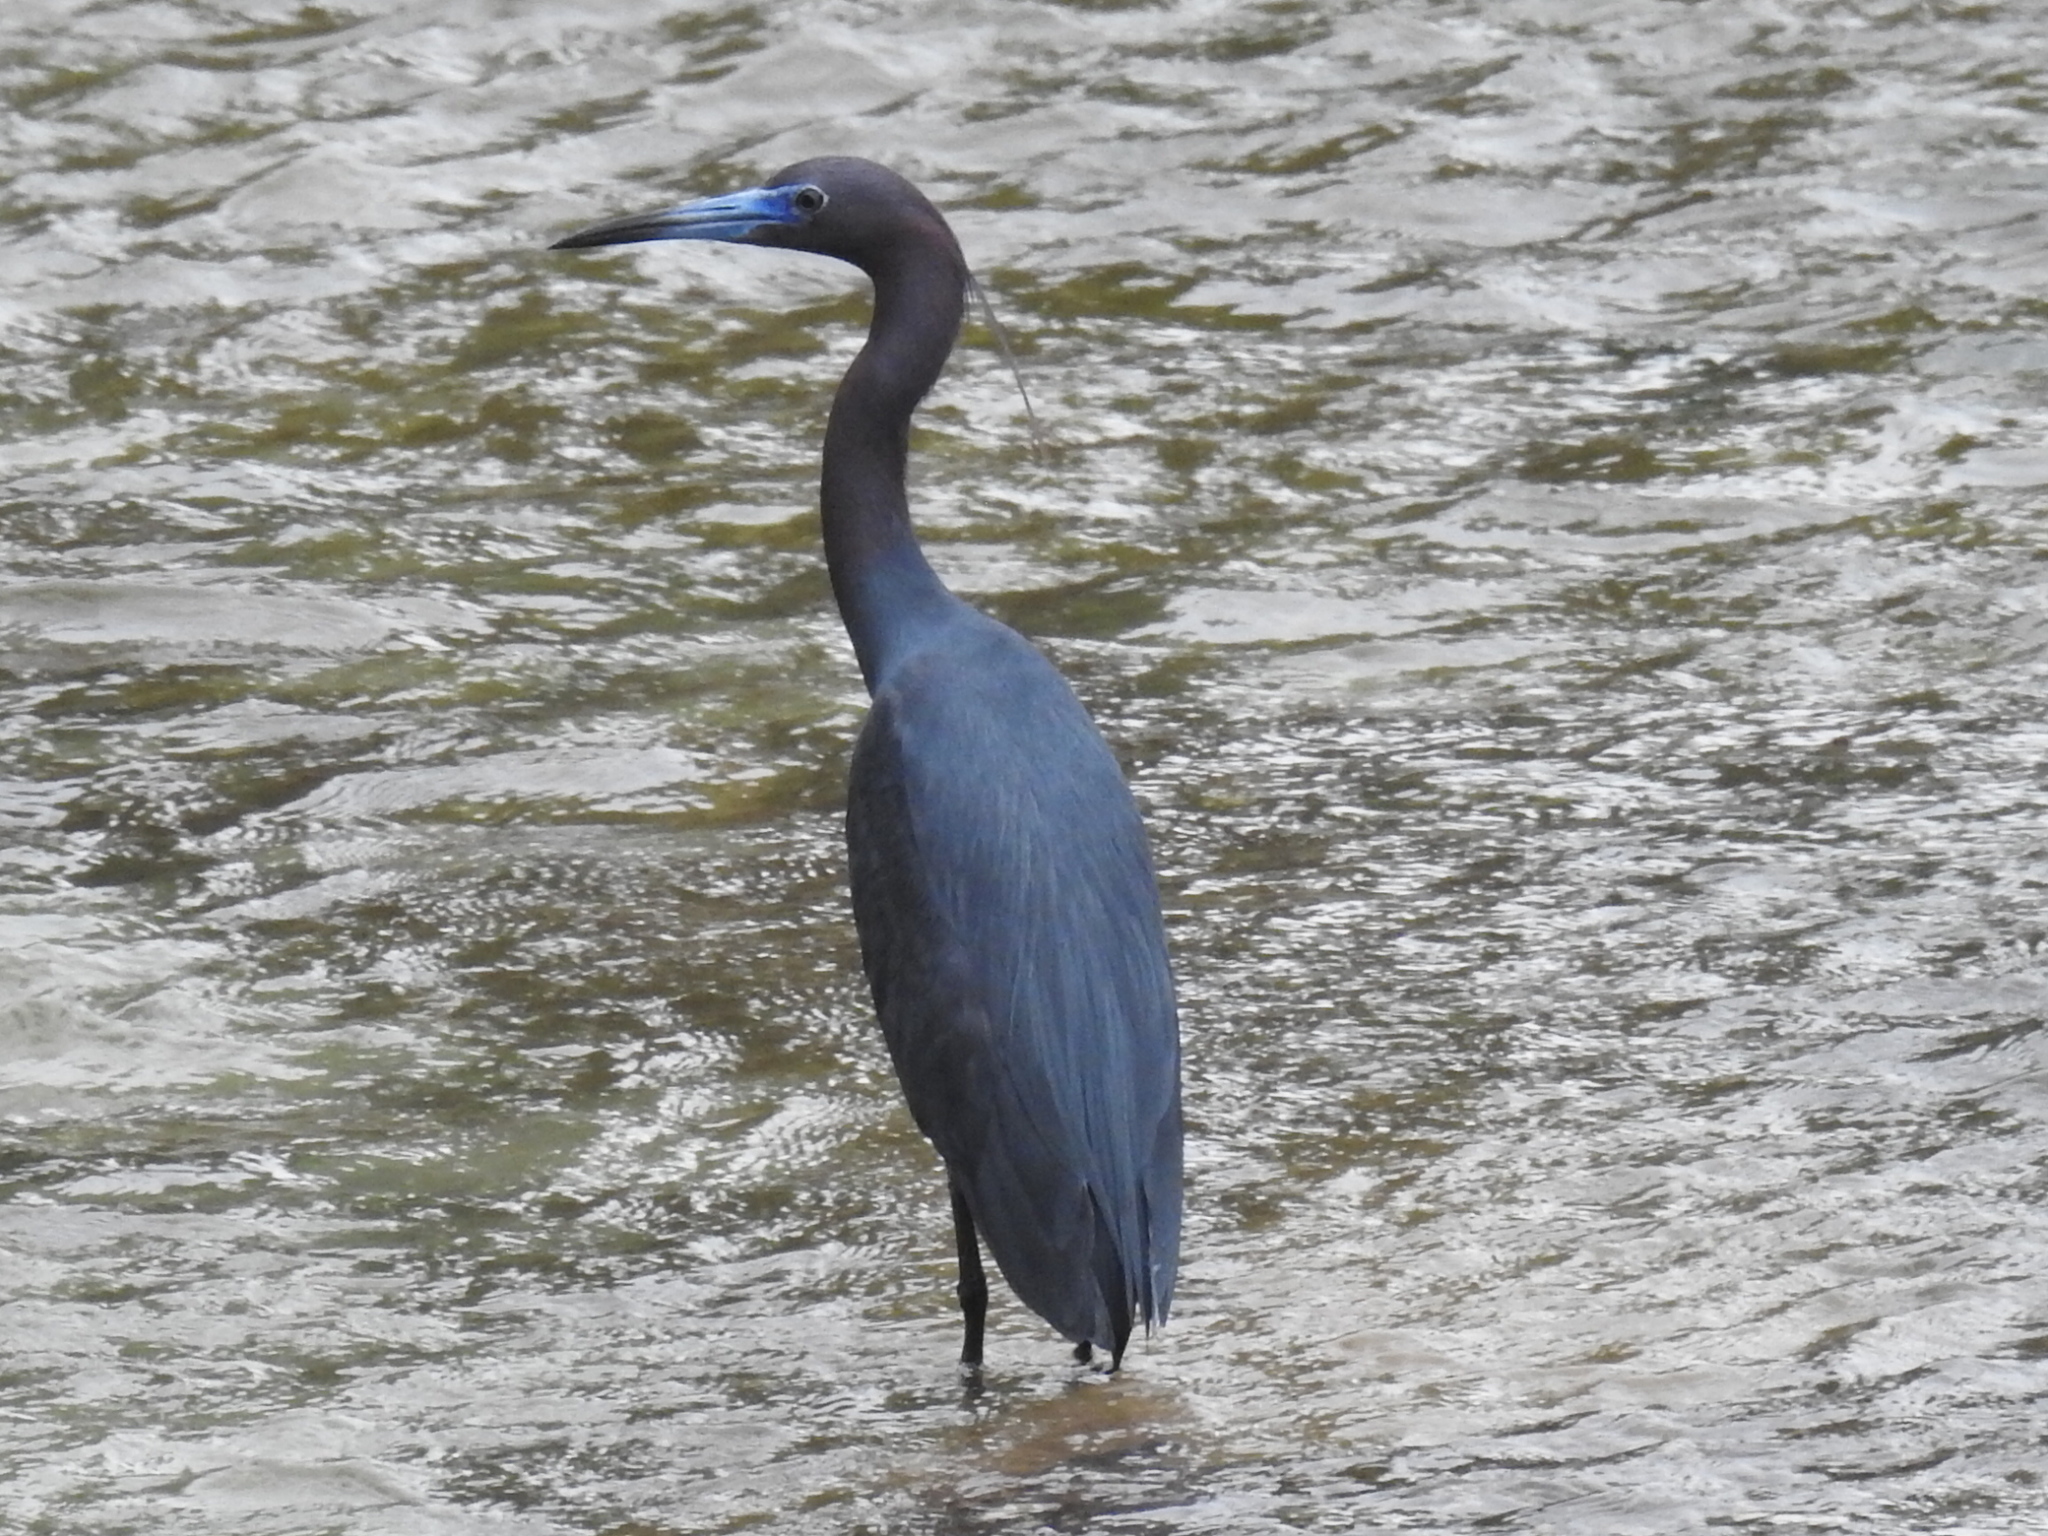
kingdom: Animalia
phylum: Chordata
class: Aves
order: Pelecaniformes
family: Ardeidae
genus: Egretta
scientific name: Egretta caerulea
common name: Little blue heron
